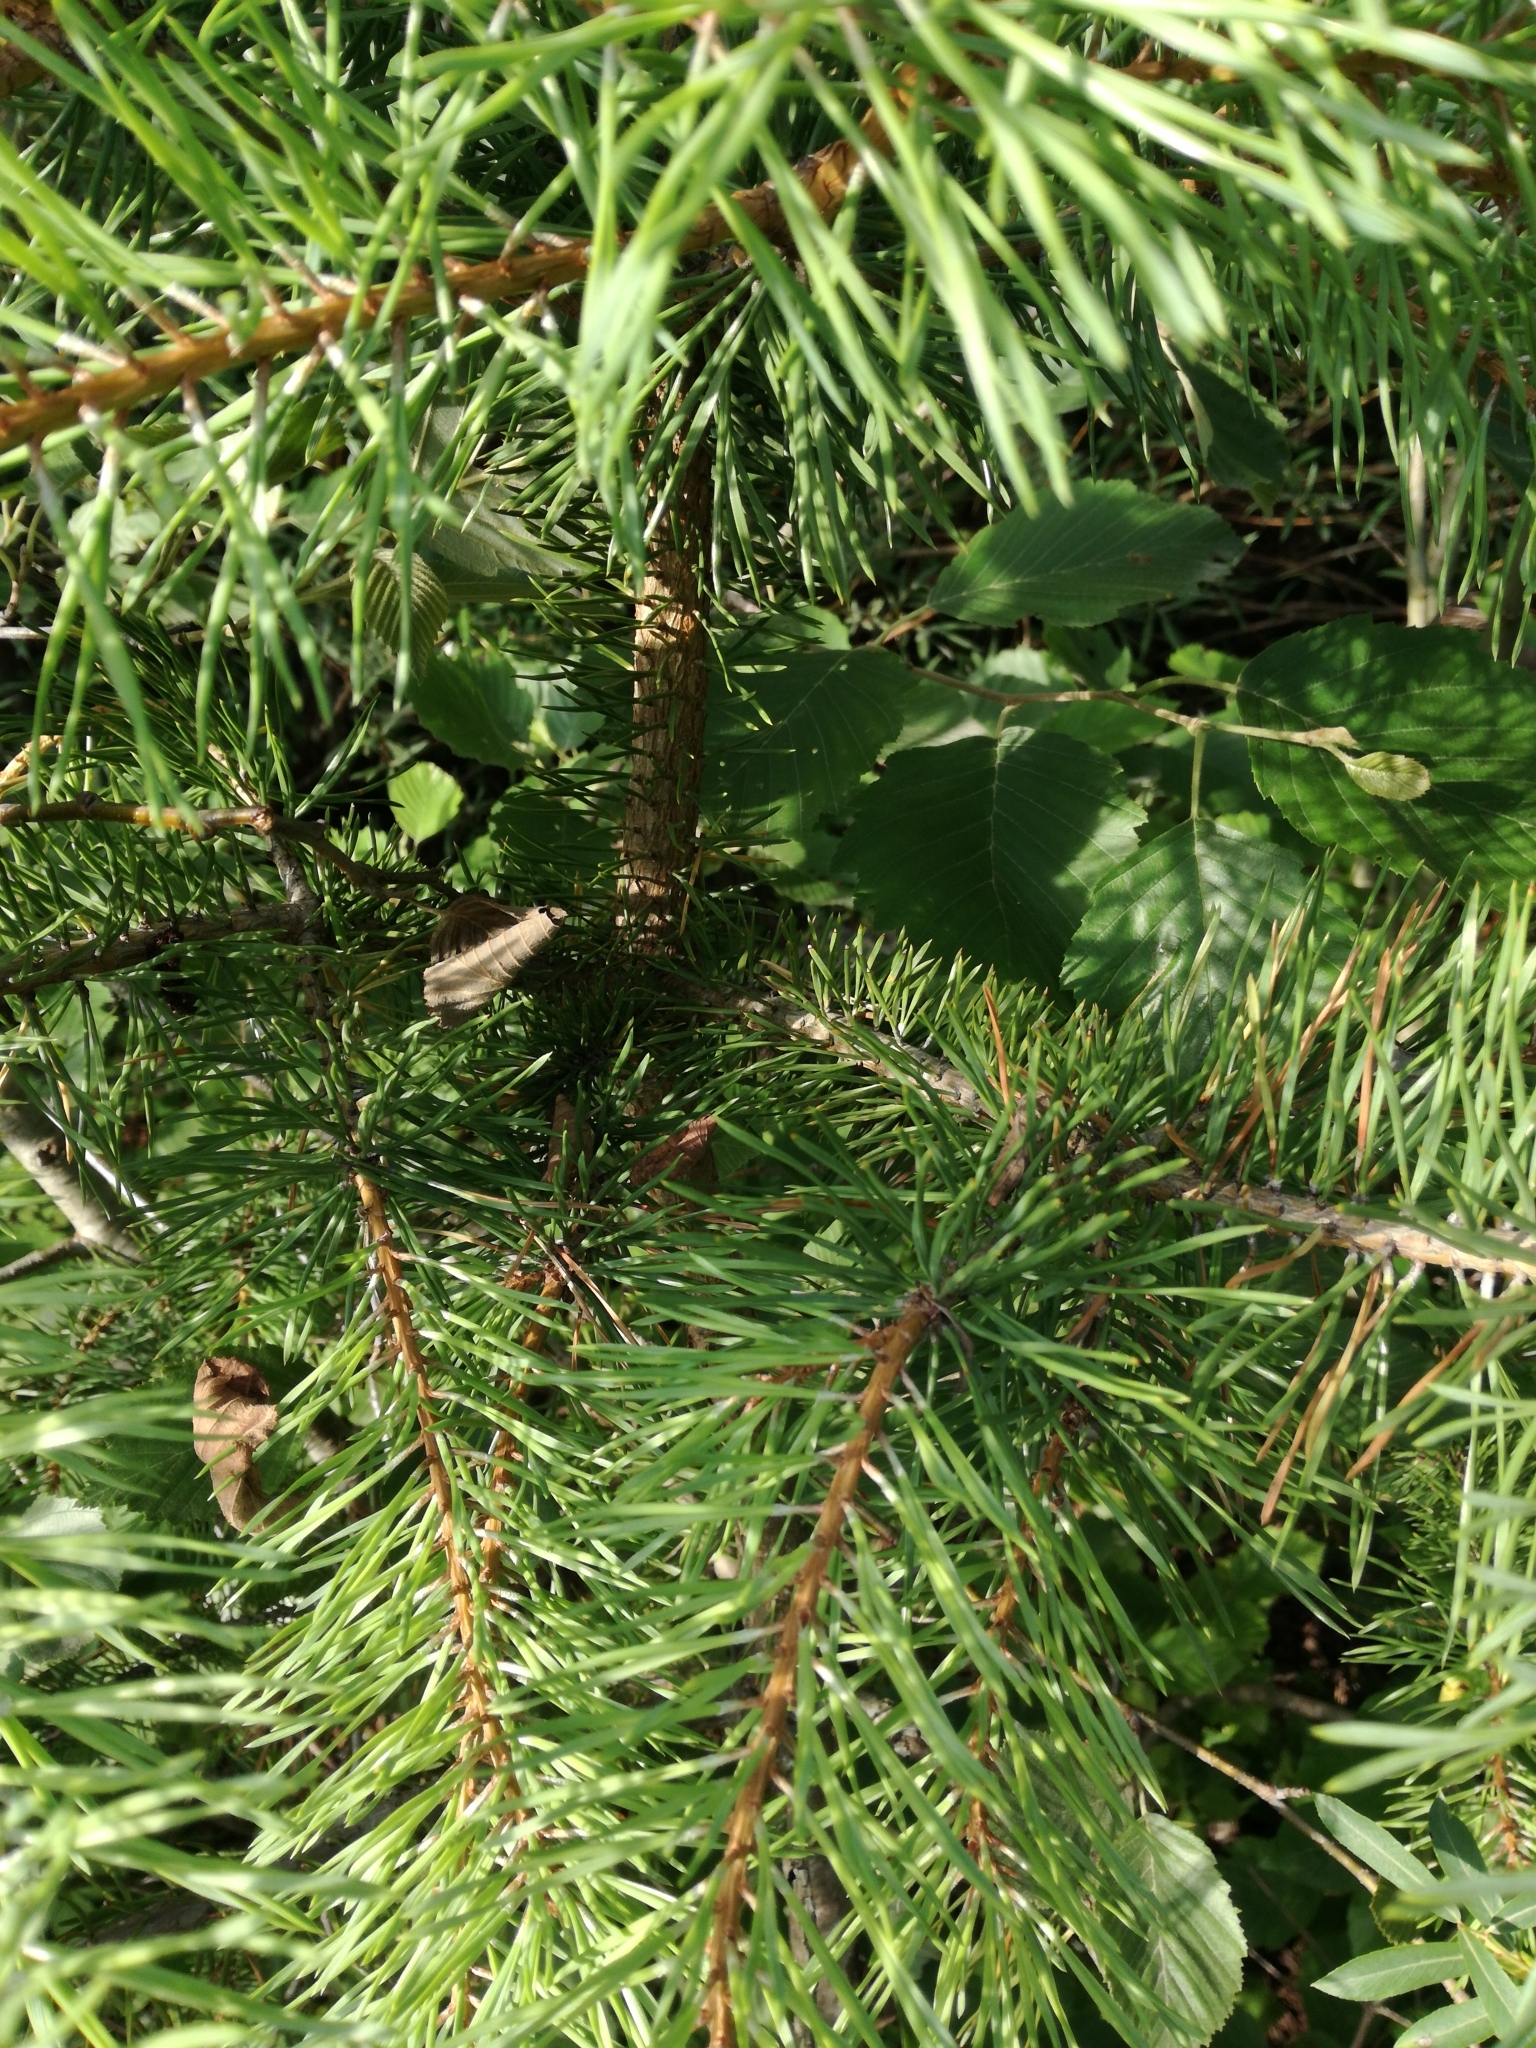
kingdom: Plantae
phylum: Tracheophyta
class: Pinopsida
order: Pinales
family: Pinaceae
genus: Pinus
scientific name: Pinus sylvestris
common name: Scots pine
